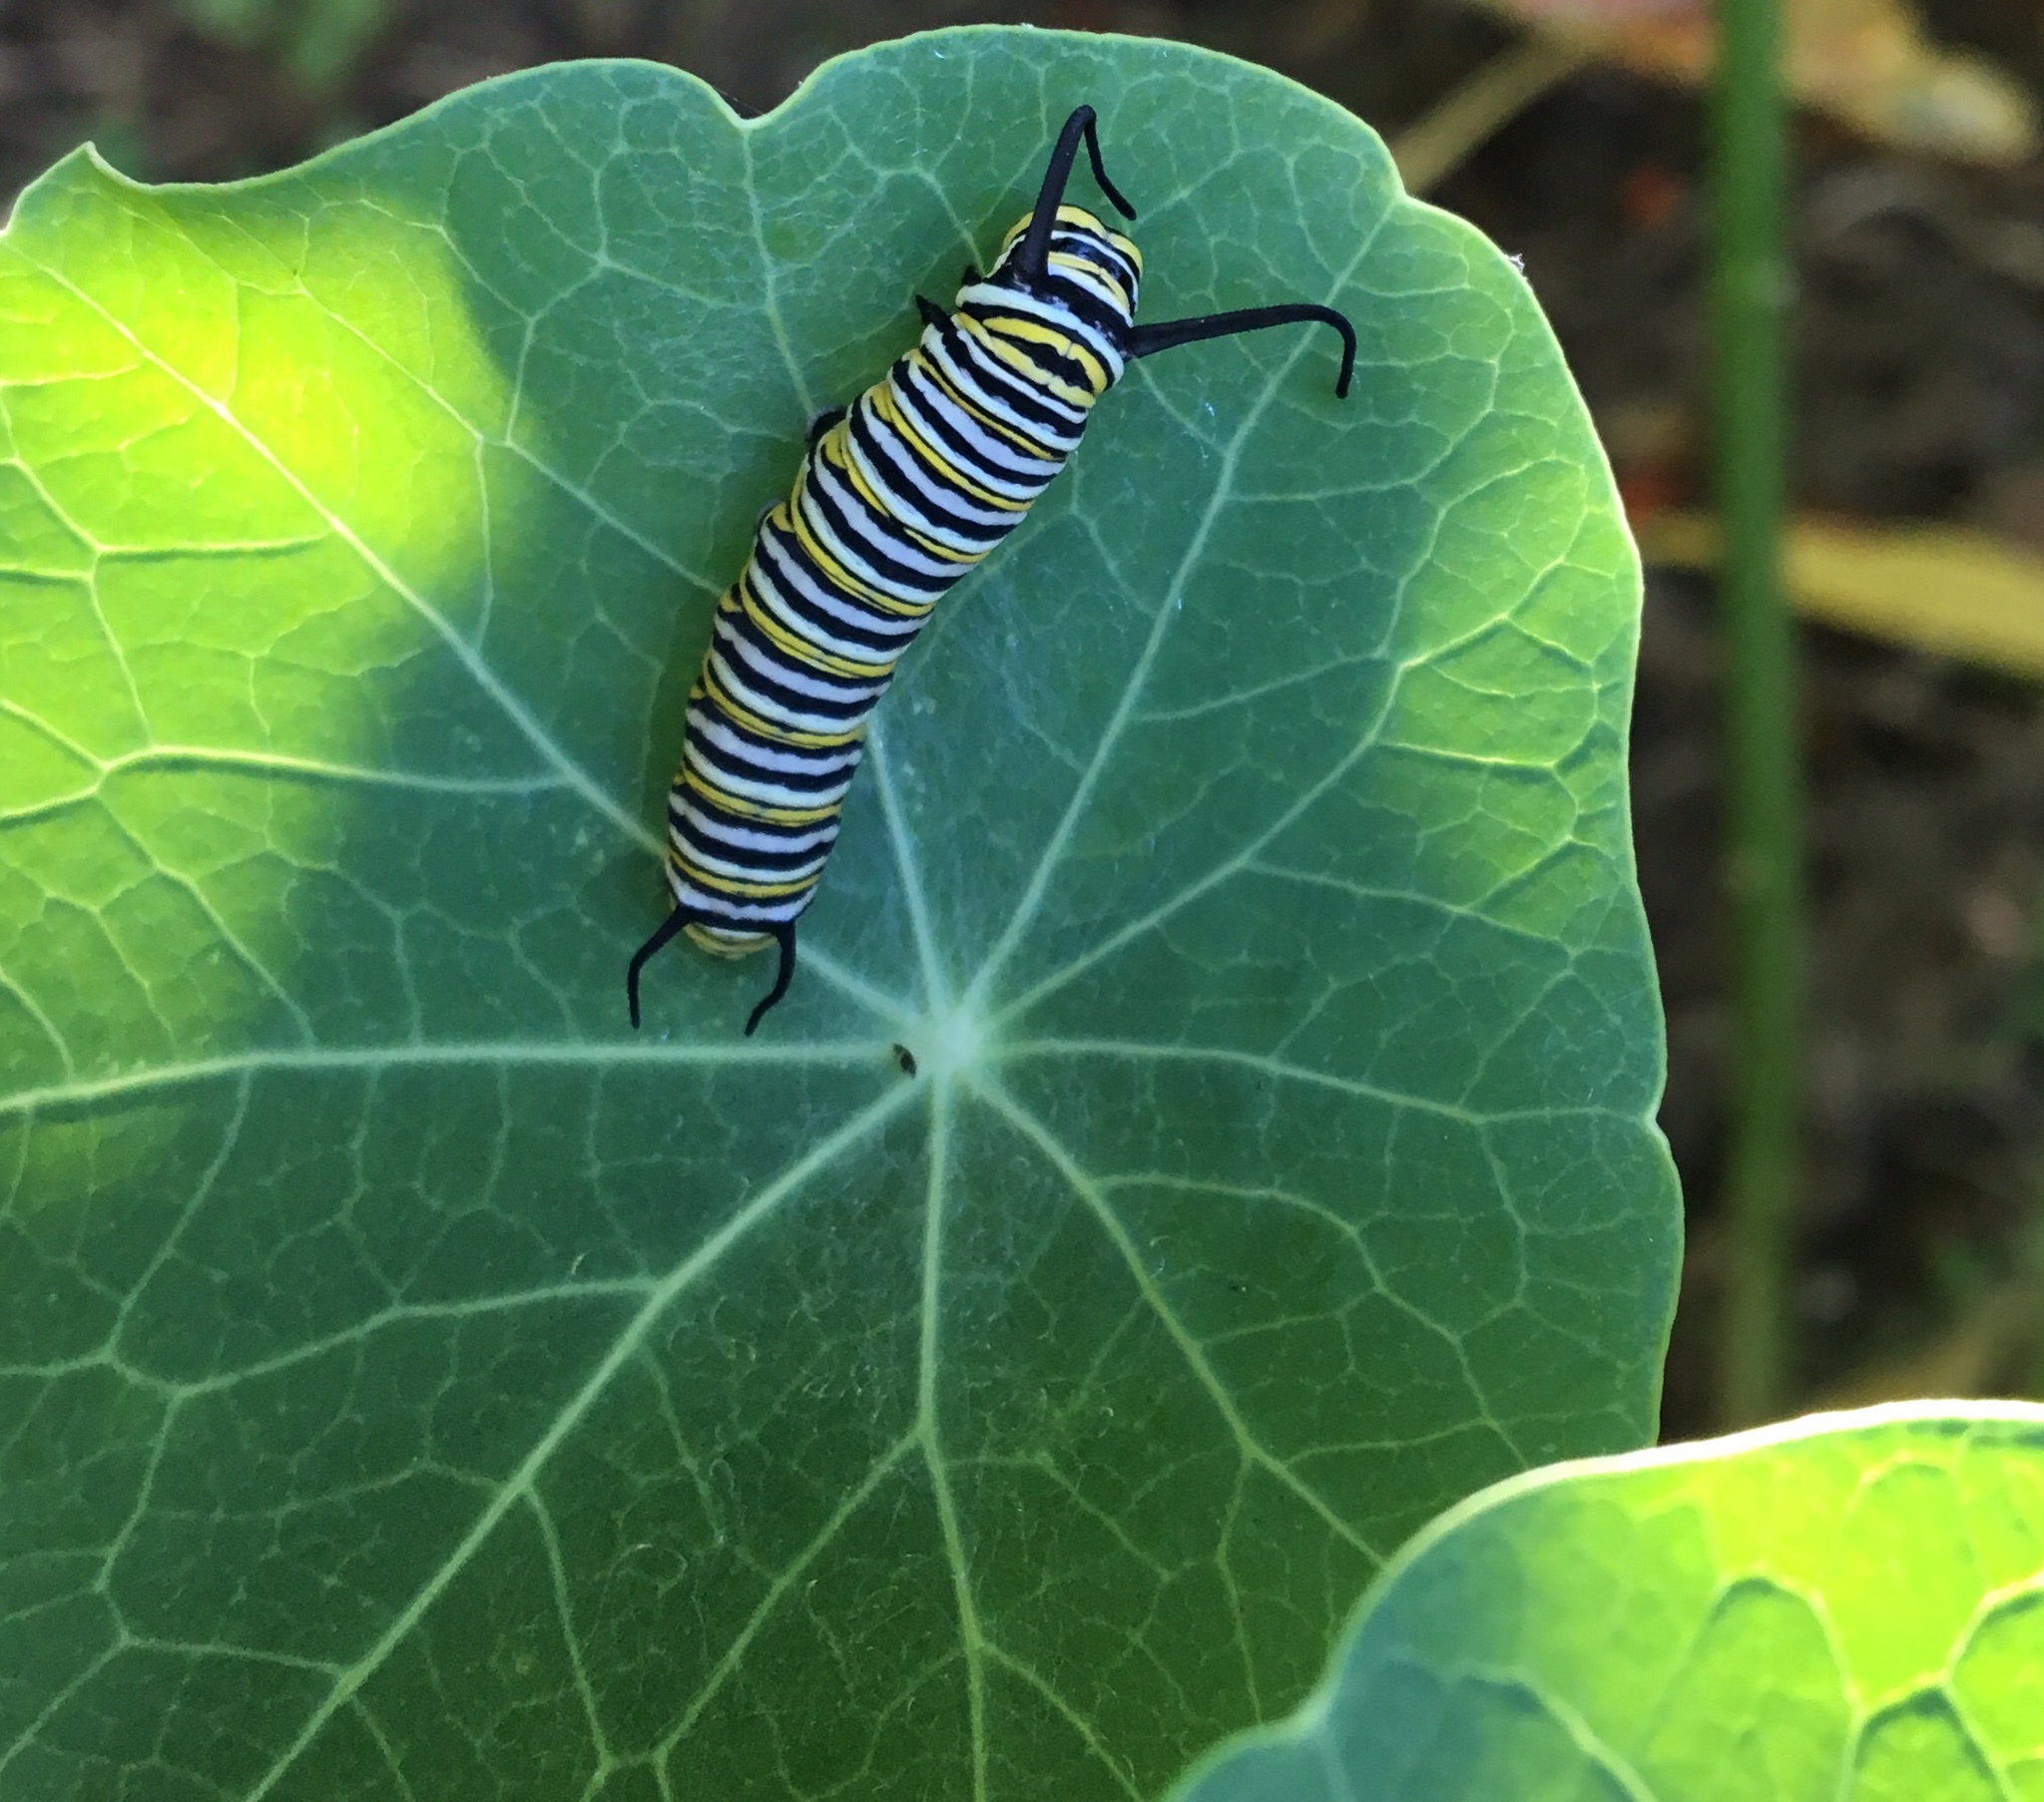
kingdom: Animalia
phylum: Arthropoda
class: Insecta
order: Lepidoptera
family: Nymphalidae
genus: Danaus
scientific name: Danaus plexippus
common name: Monarch
